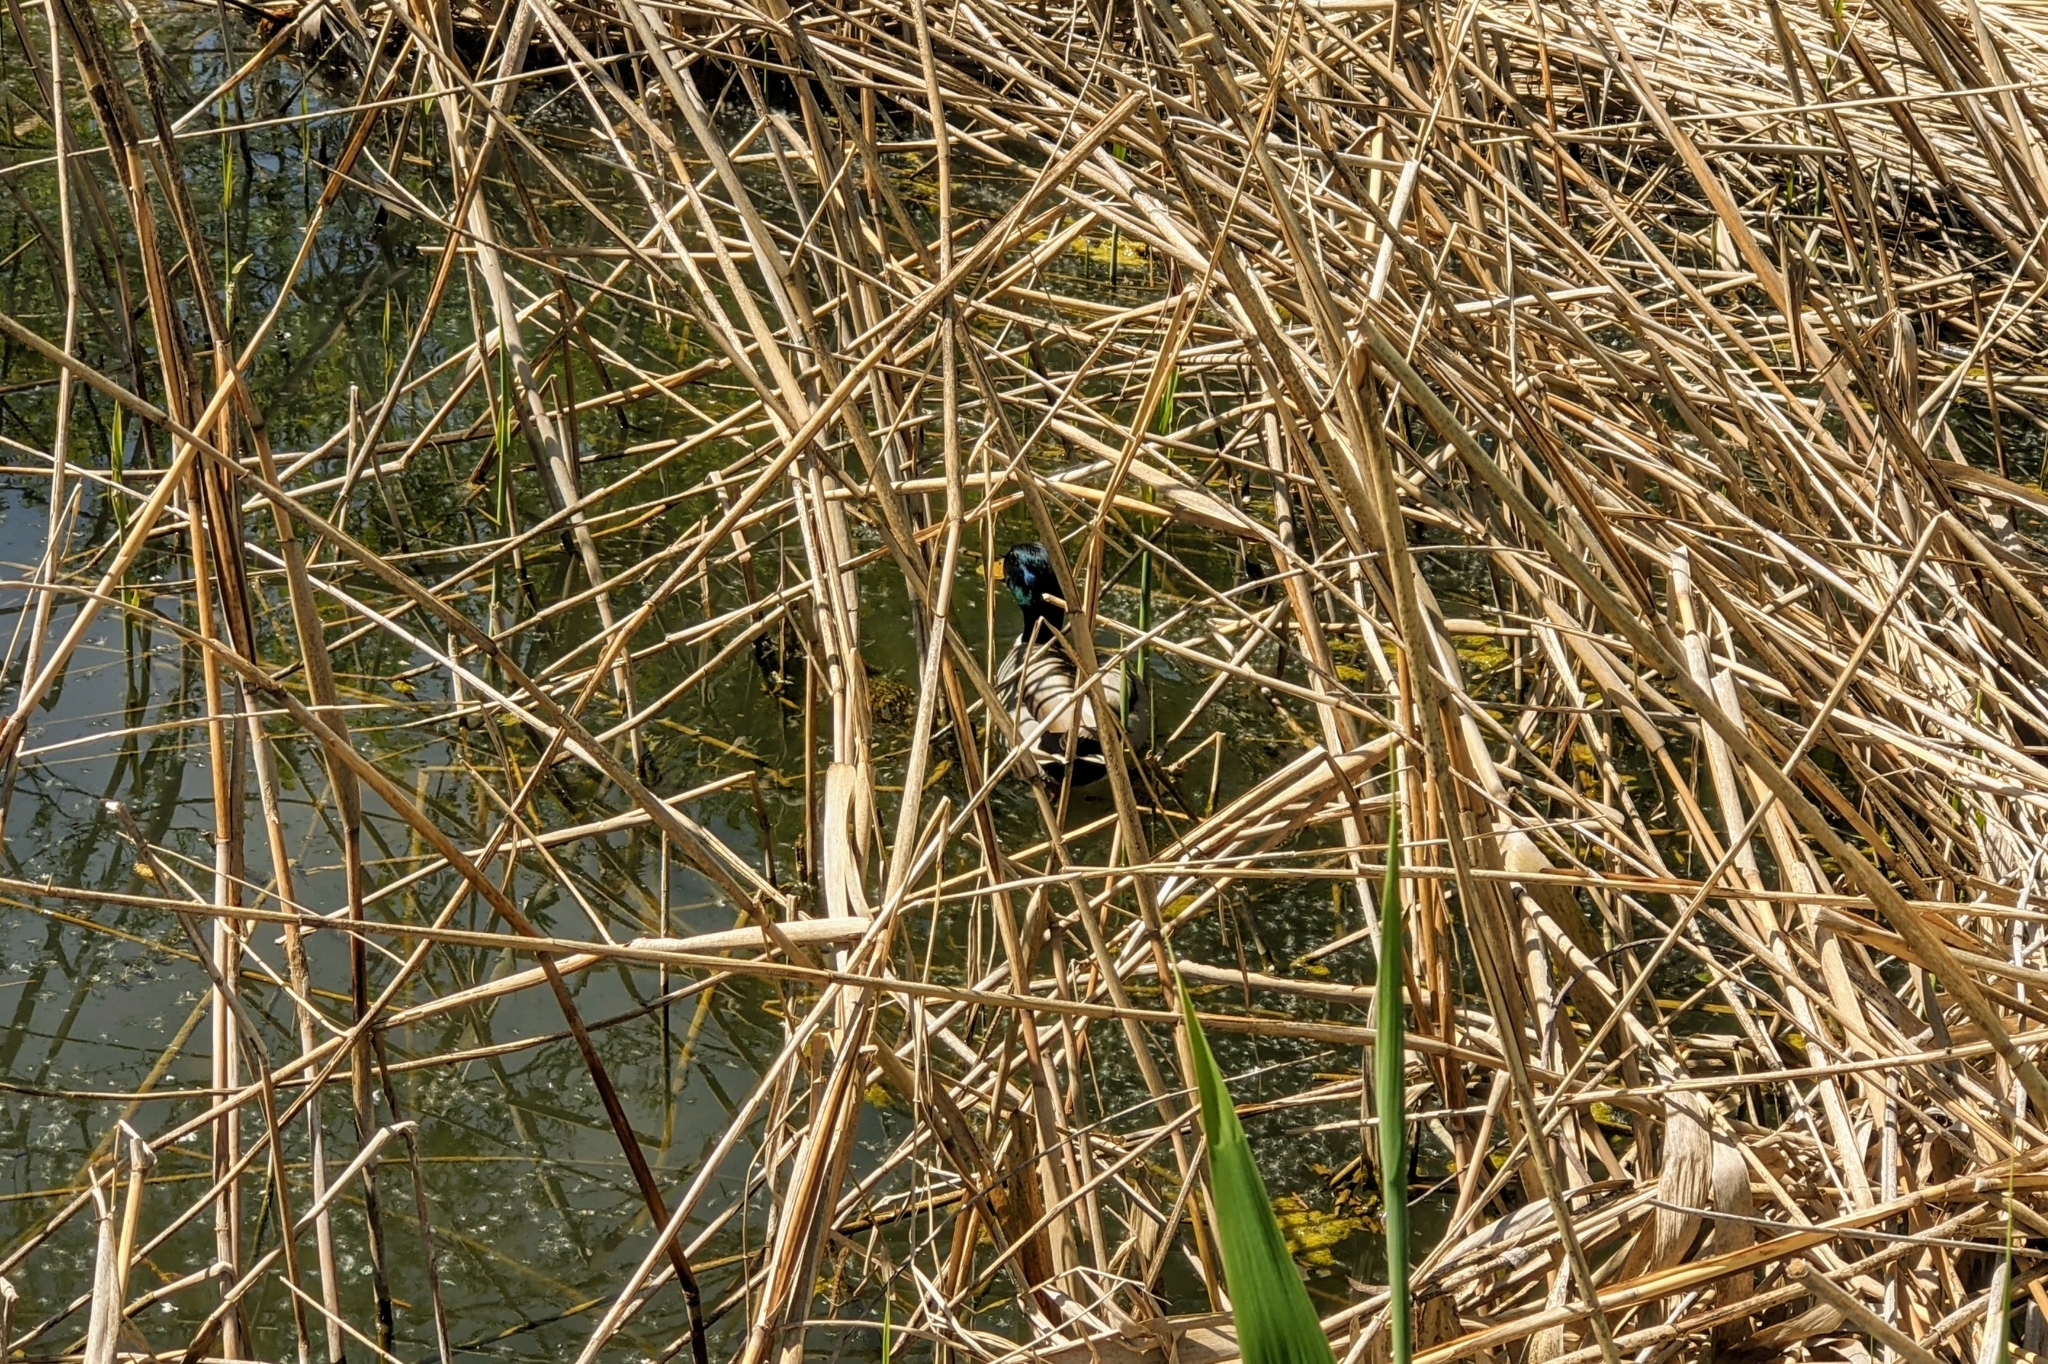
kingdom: Animalia
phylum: Chordata
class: Aves
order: Anseriformes
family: Anatidae
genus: Anas
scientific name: Anas platyrhynchos
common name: Mallard
